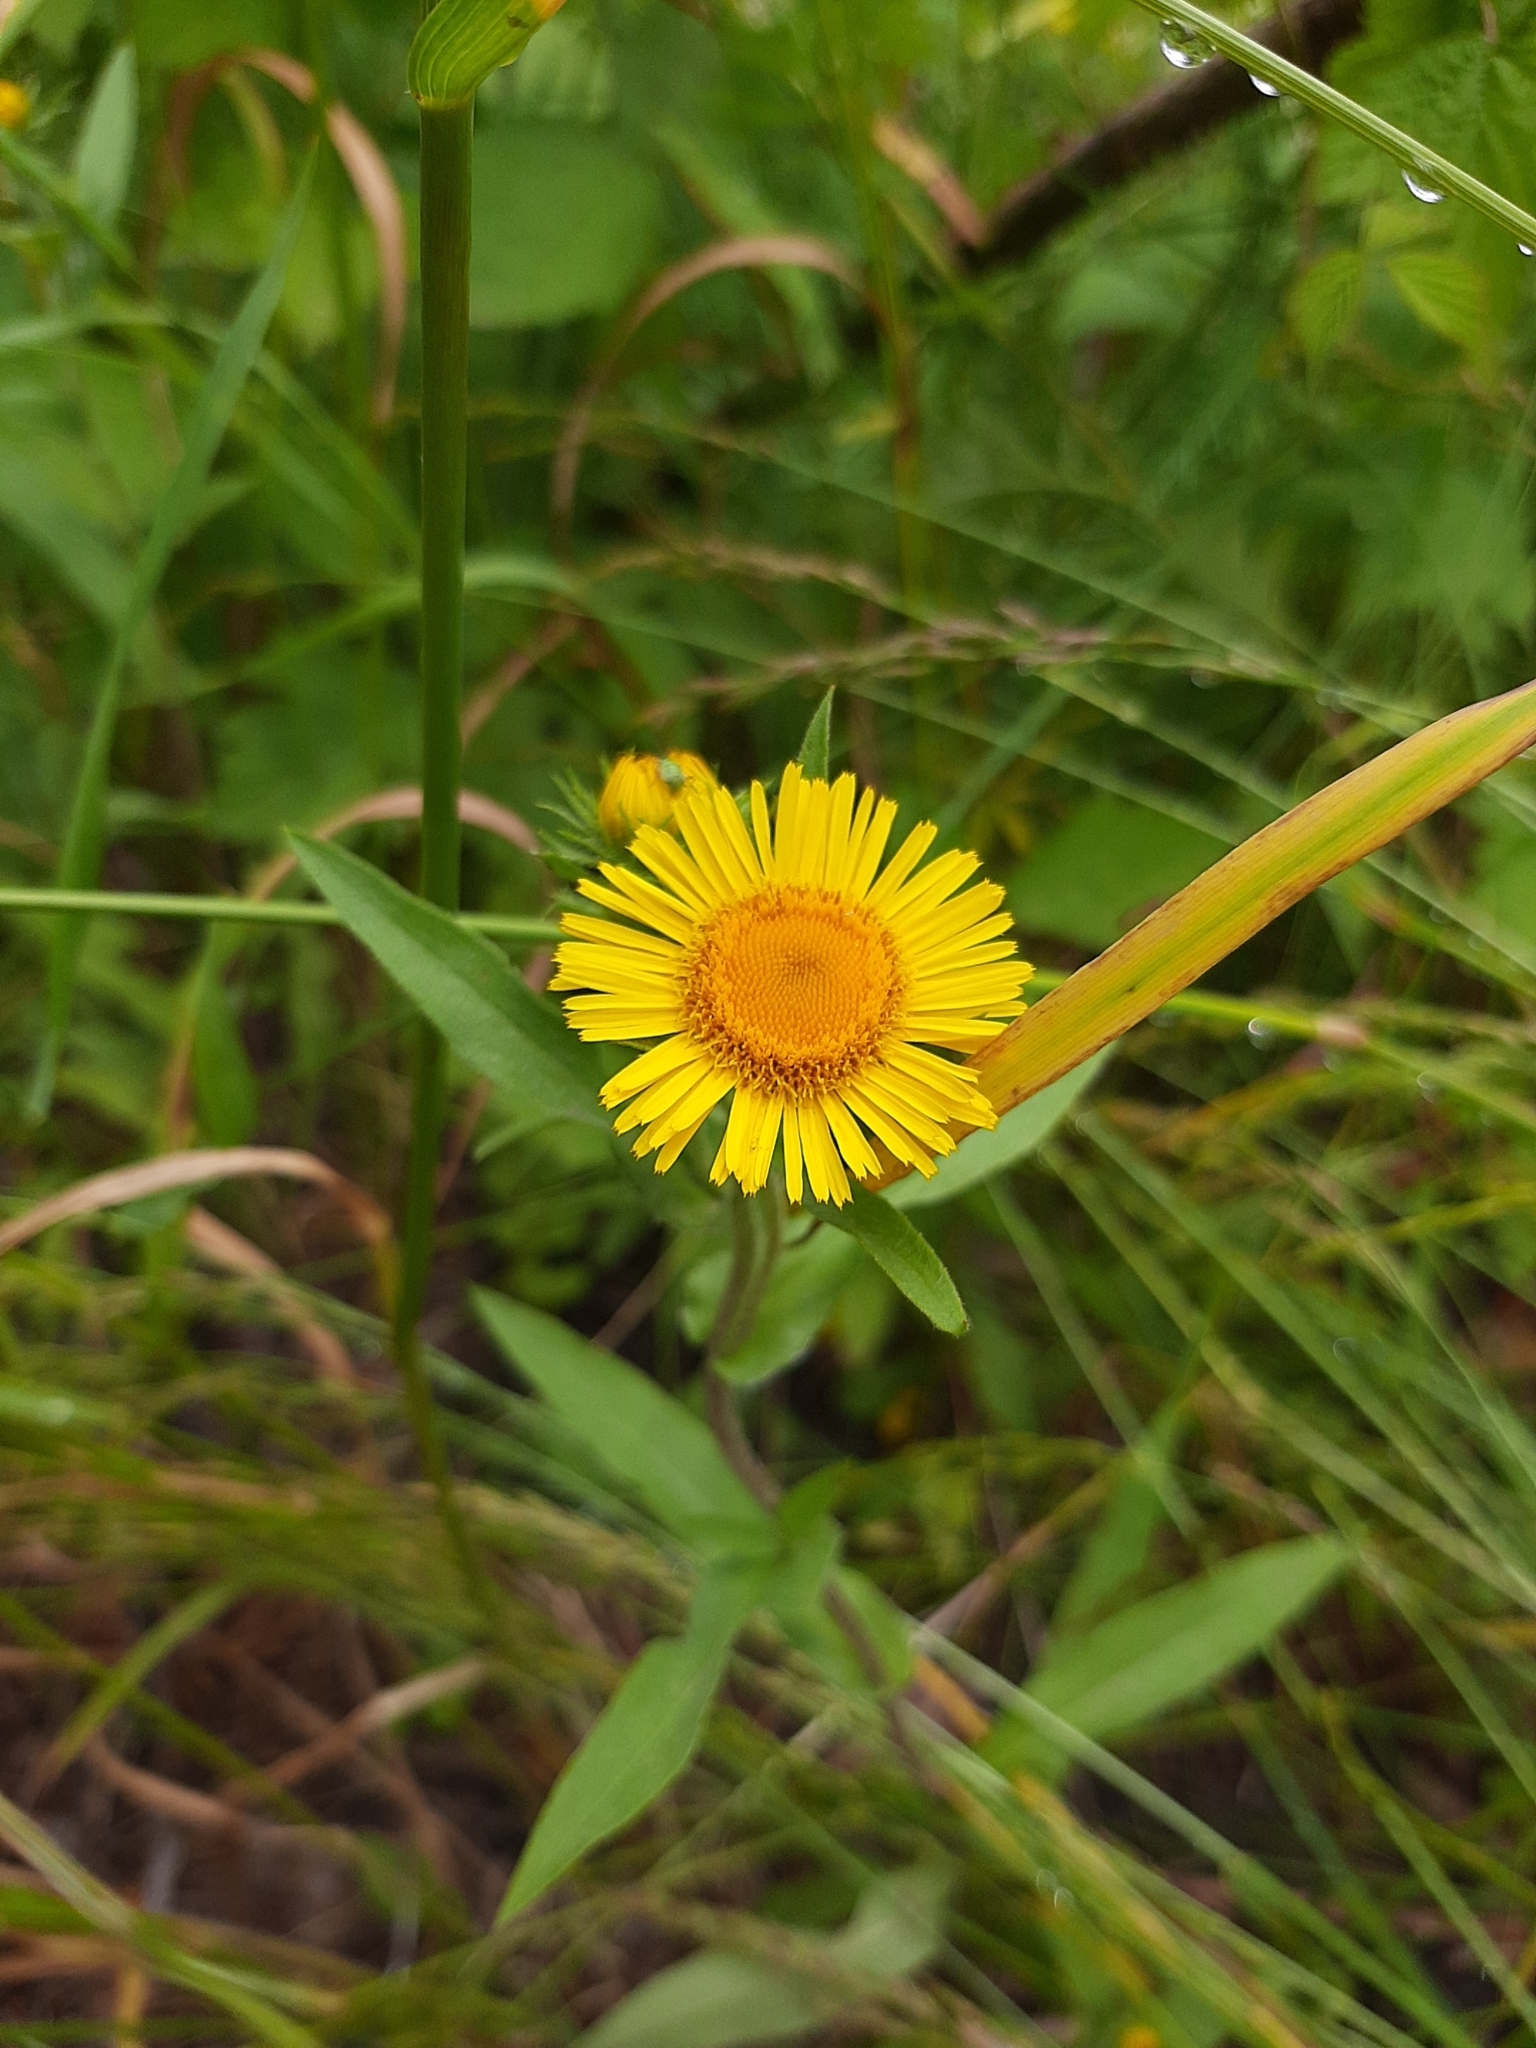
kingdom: Plantae
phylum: Tracheophyta
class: Magnoliopsida
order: Asterales
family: Asteraceae
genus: Pentanema
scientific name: Pentanema britannicum
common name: British elecampane
